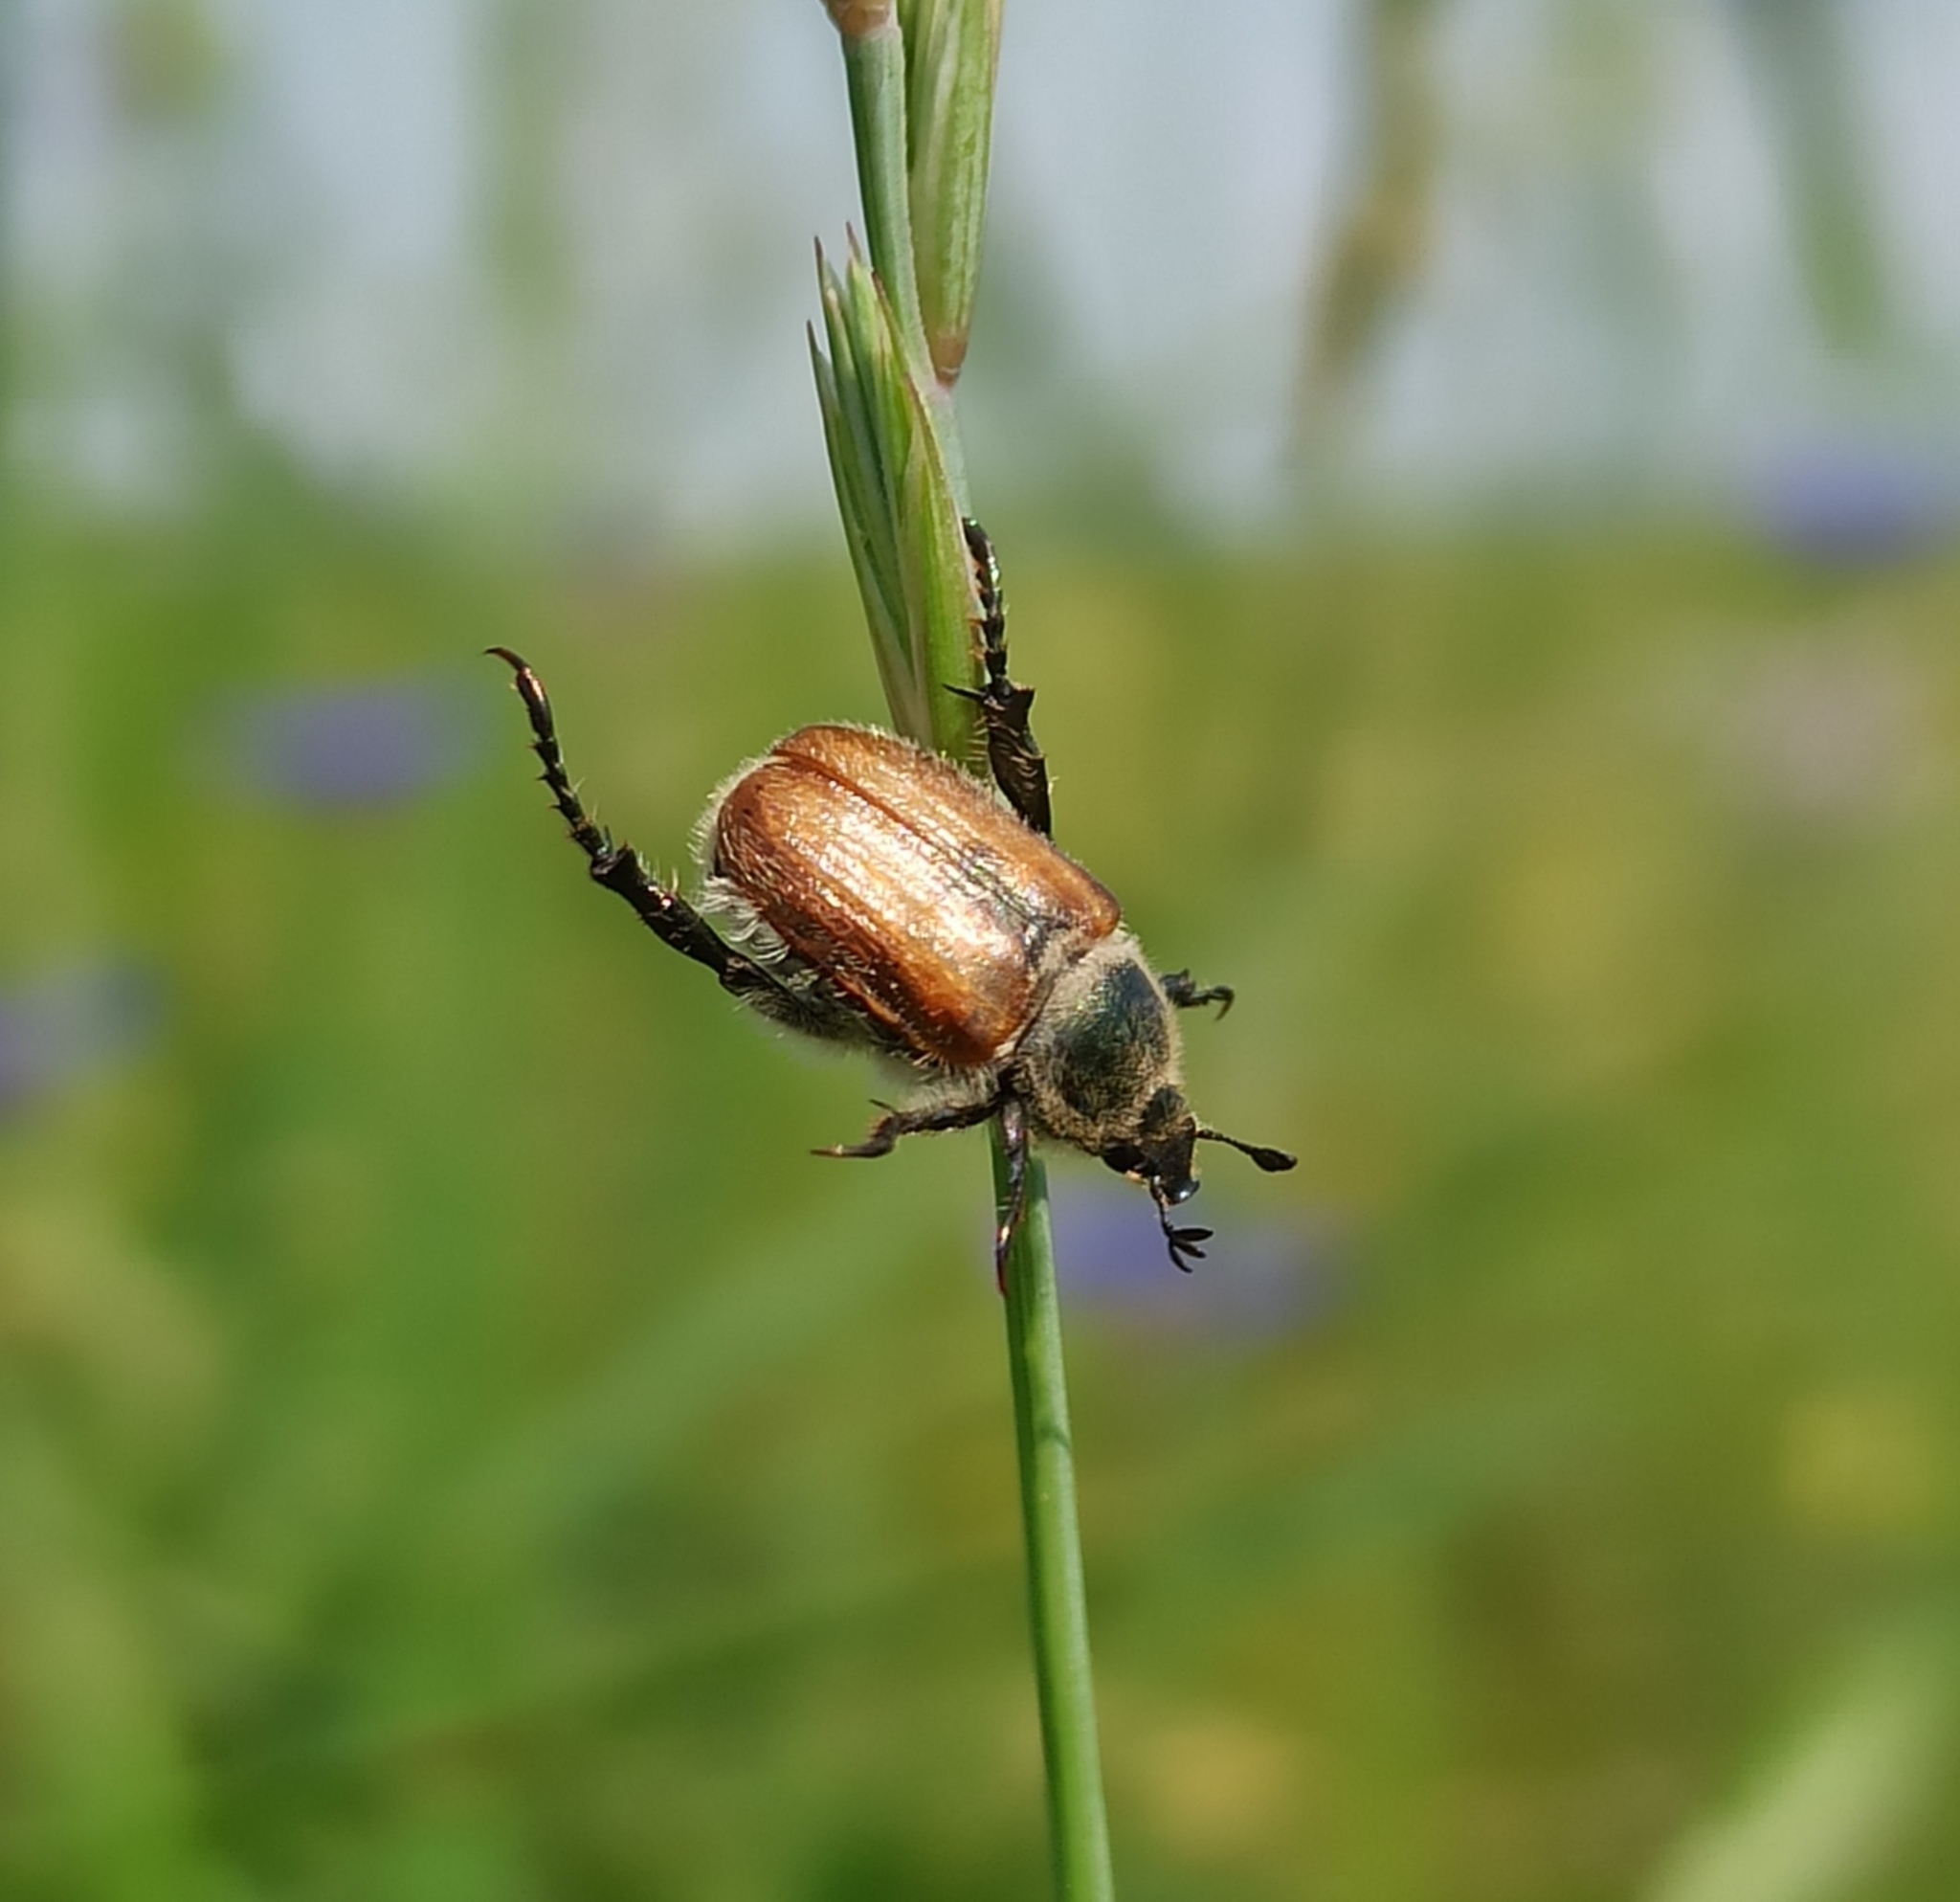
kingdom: Animalia
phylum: Arthropoda
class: Insecta
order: Coleoptera
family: Scarabaeidae
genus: Chaetopteroplia
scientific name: Chaetopteroplia segetum
